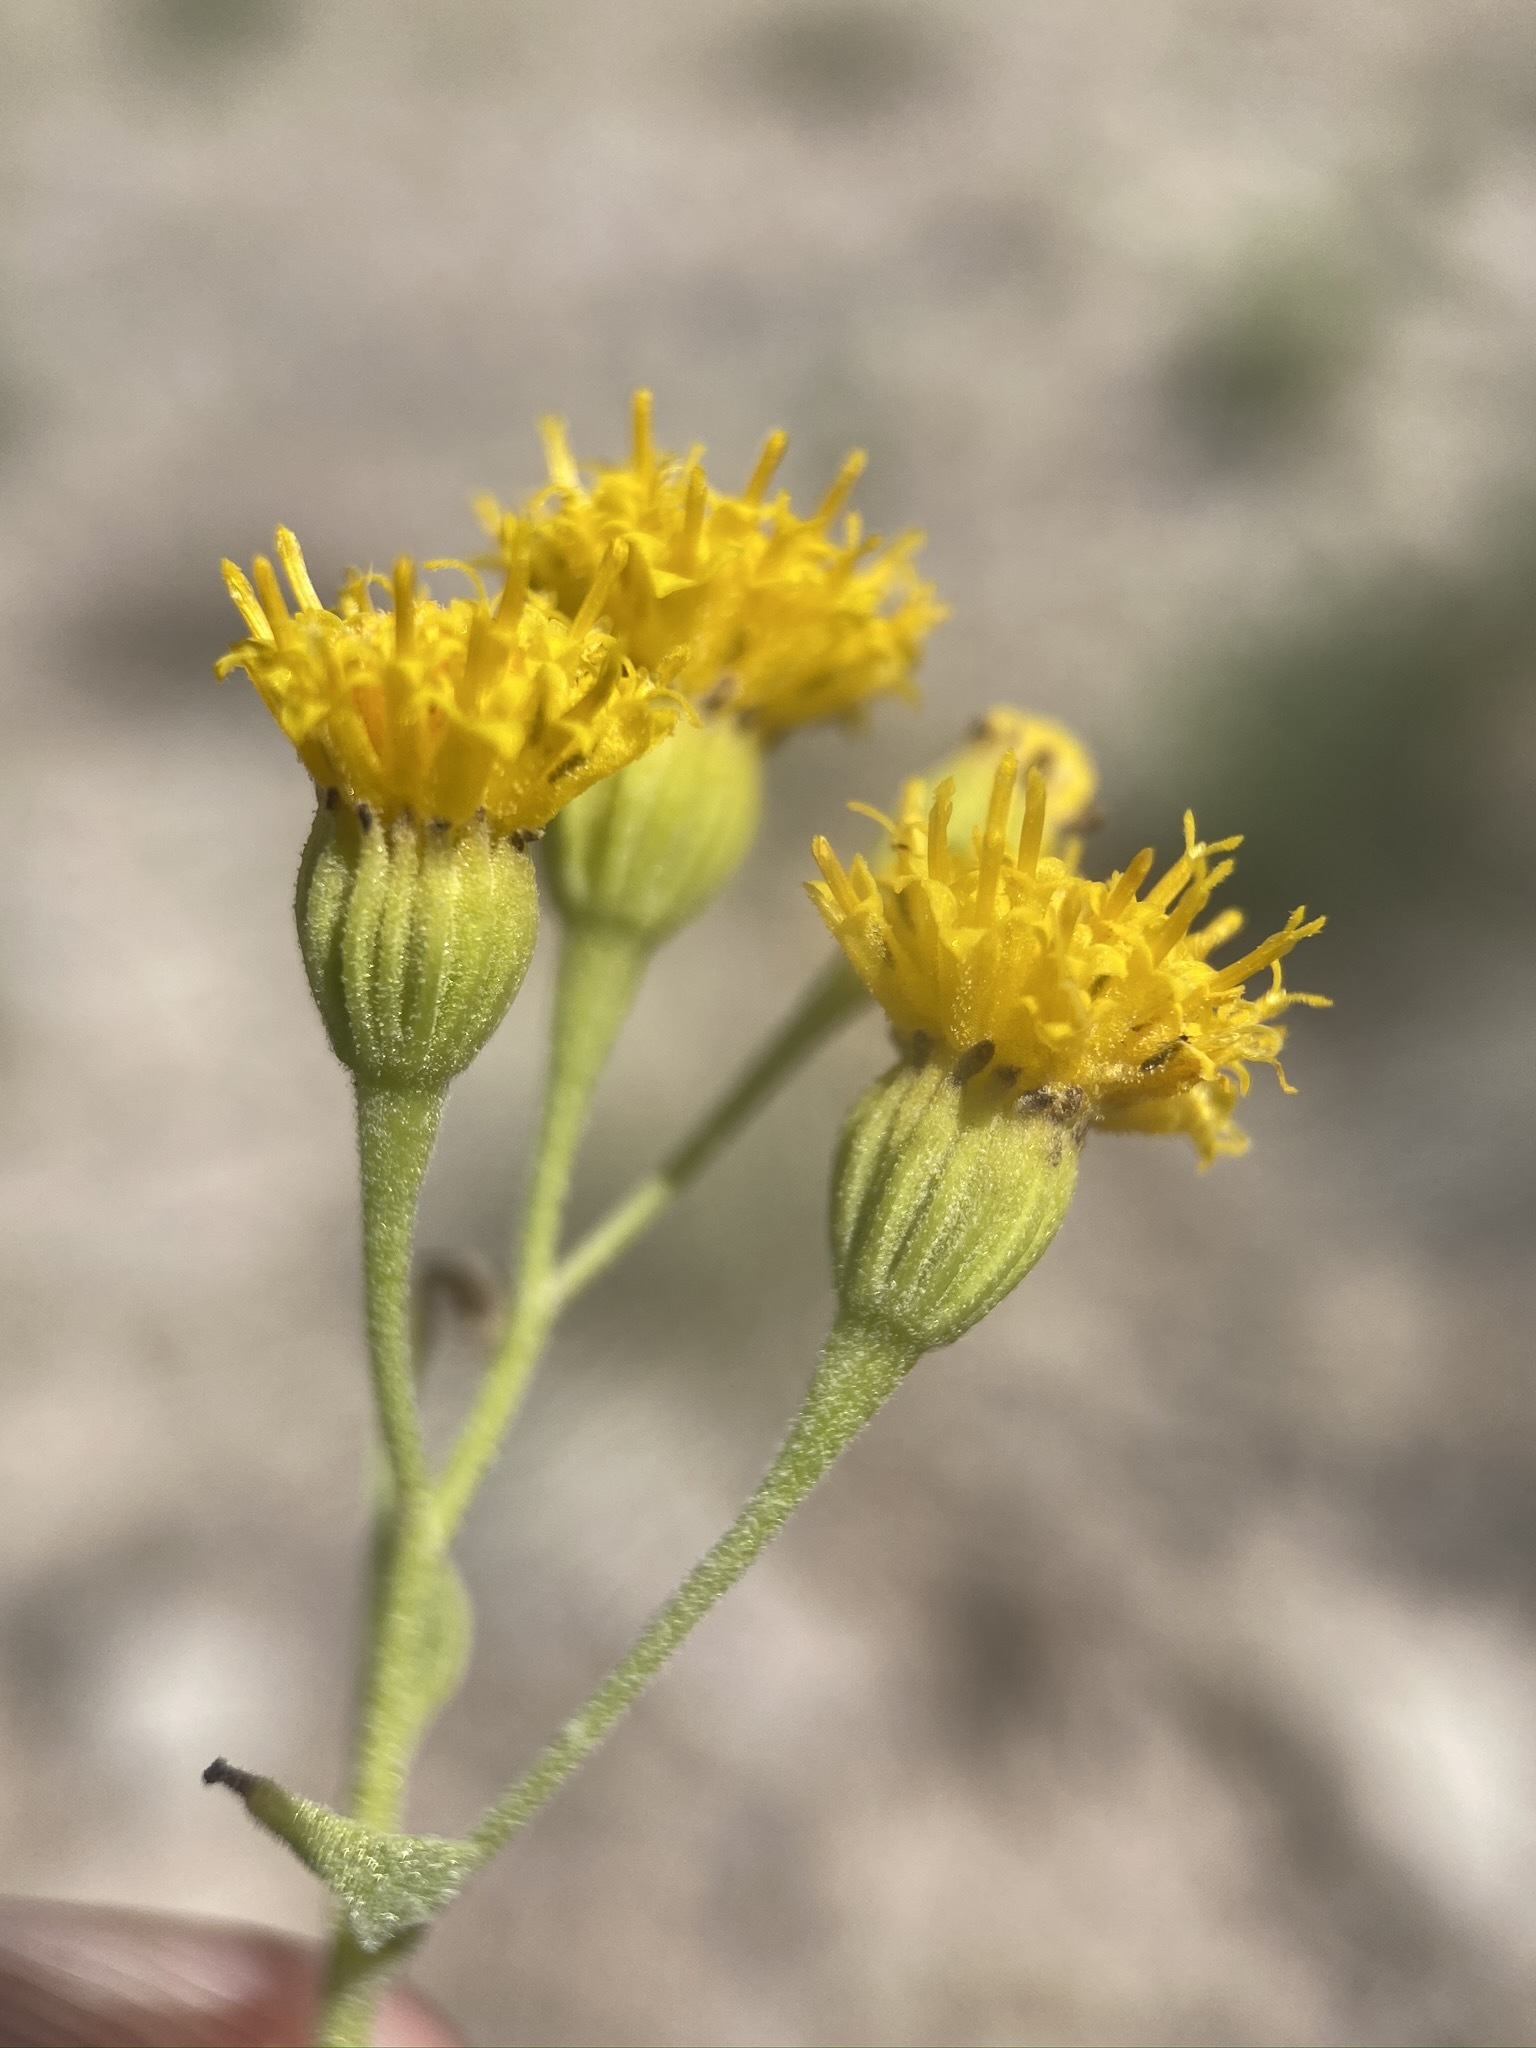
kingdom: Plantae
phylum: Tracheophyta
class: Magnoliopsida
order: Asterales
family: Asteraceae
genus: Pericome
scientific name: Pericome caudata
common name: Taperleaf
